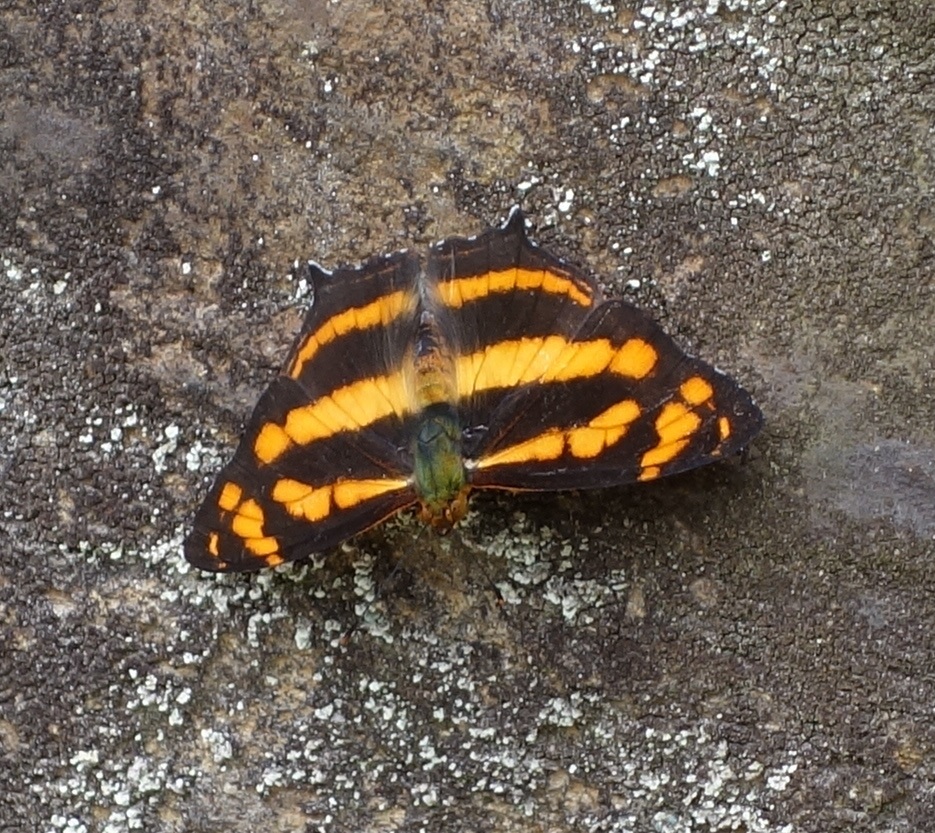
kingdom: Animalia
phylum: Arthropoda
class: Insecta
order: Lepidoptera
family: Nymphalidae
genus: Symbrenthia
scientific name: Symbrenthia hypselis
